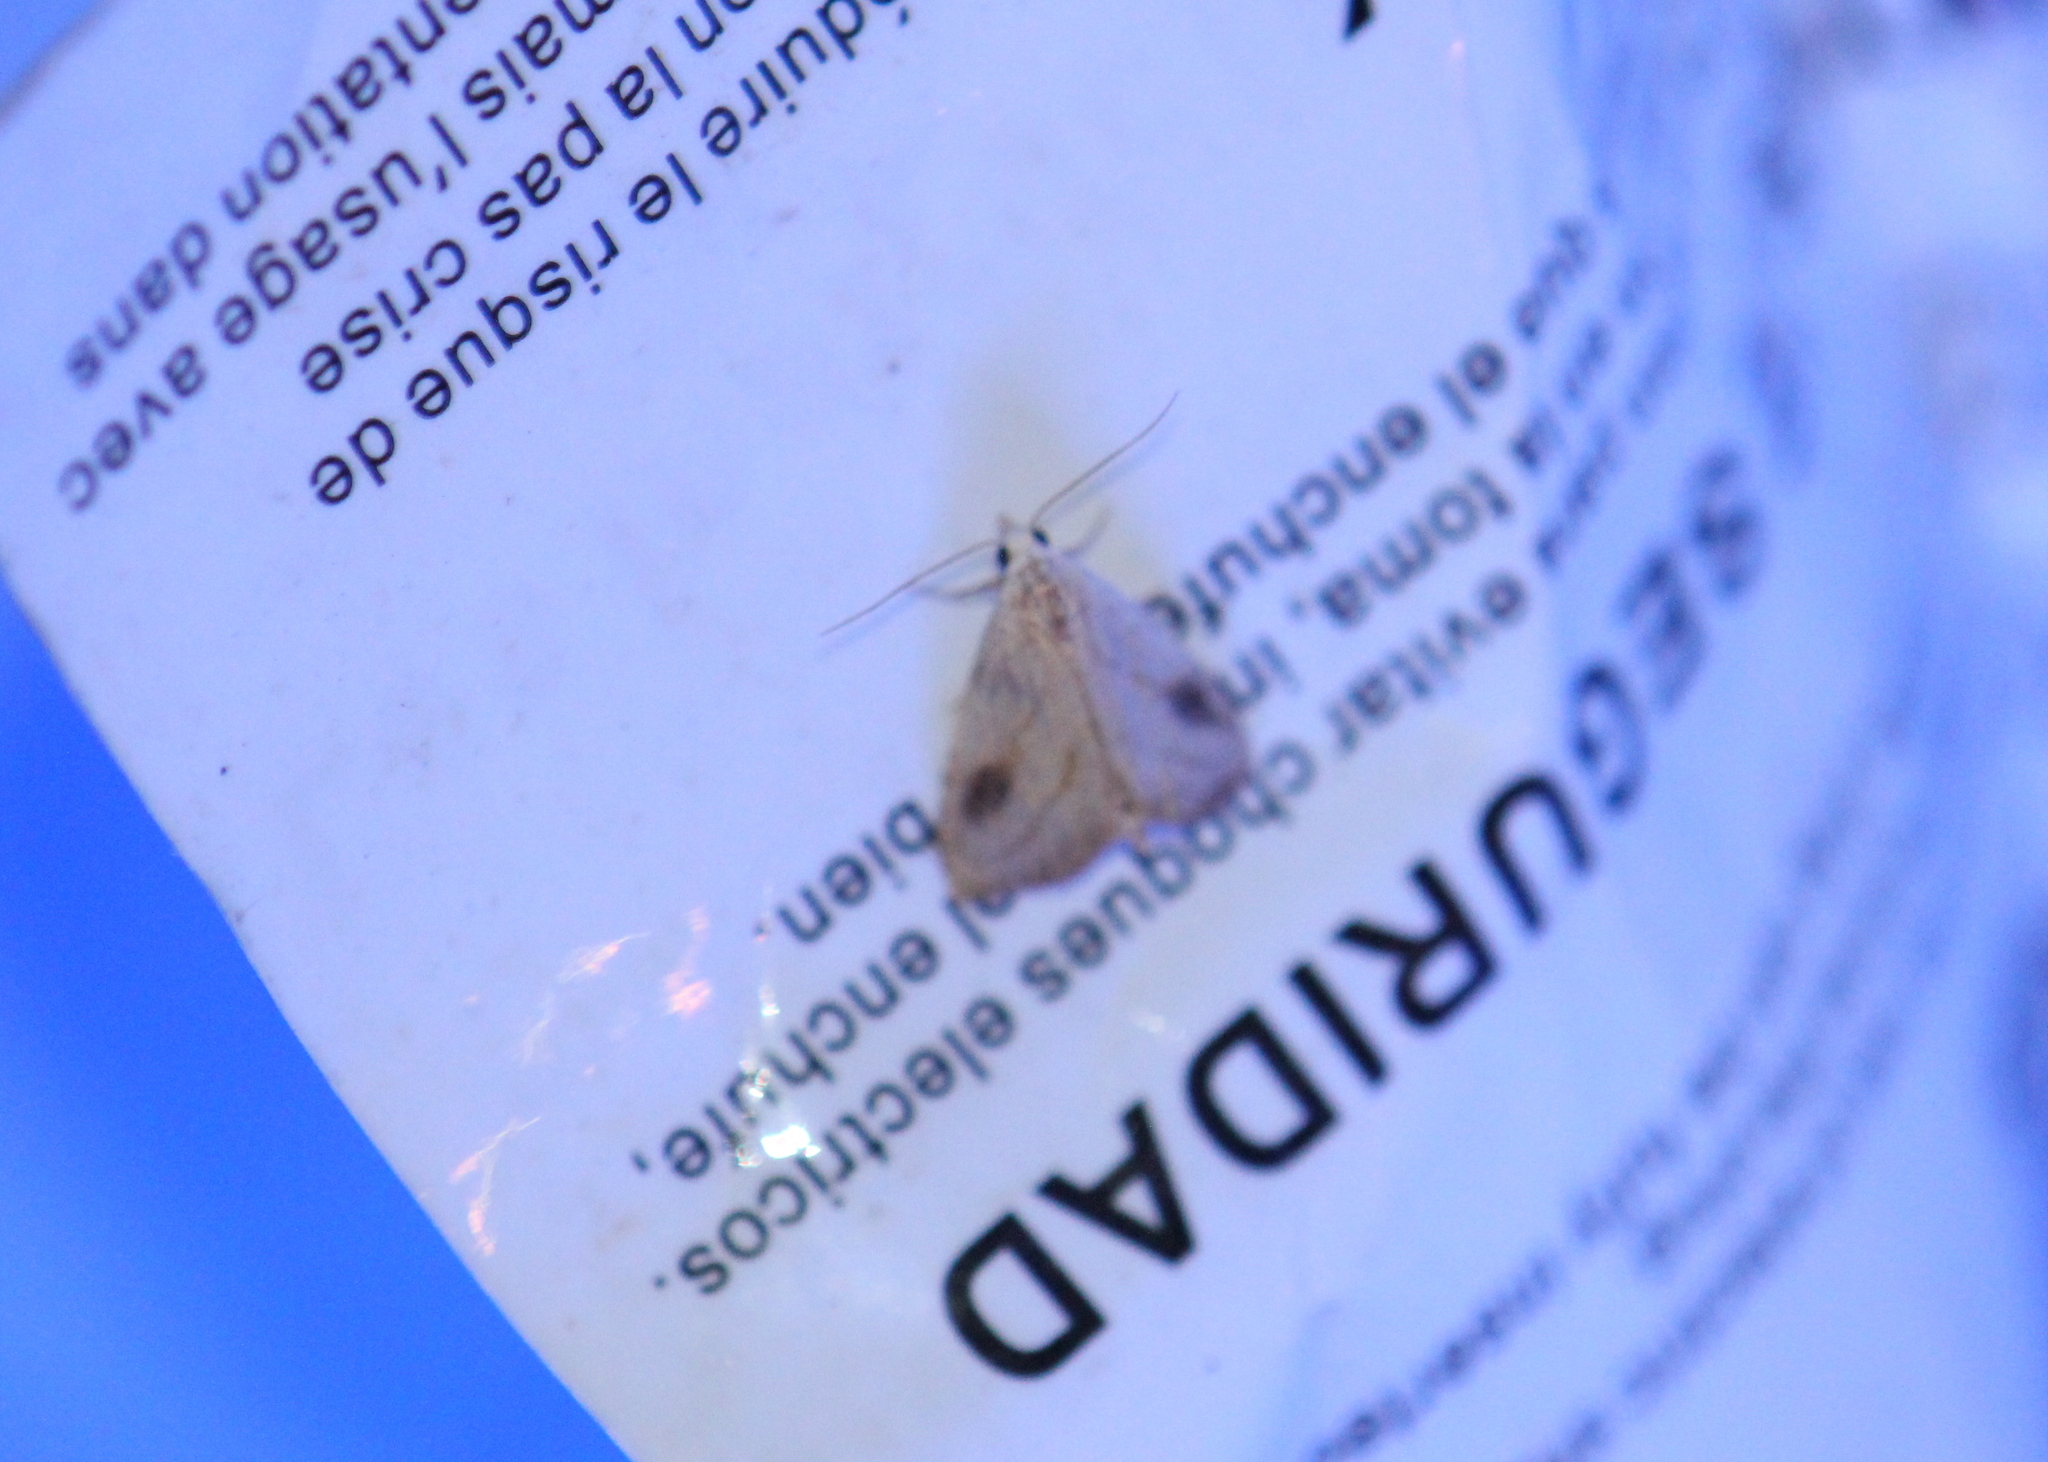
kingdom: Animalia
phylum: Arthropoda
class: Insecta
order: Lepidoptera
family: Erebidae
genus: Rivula
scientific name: Rivula propinqualis
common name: Spotted grass moth
